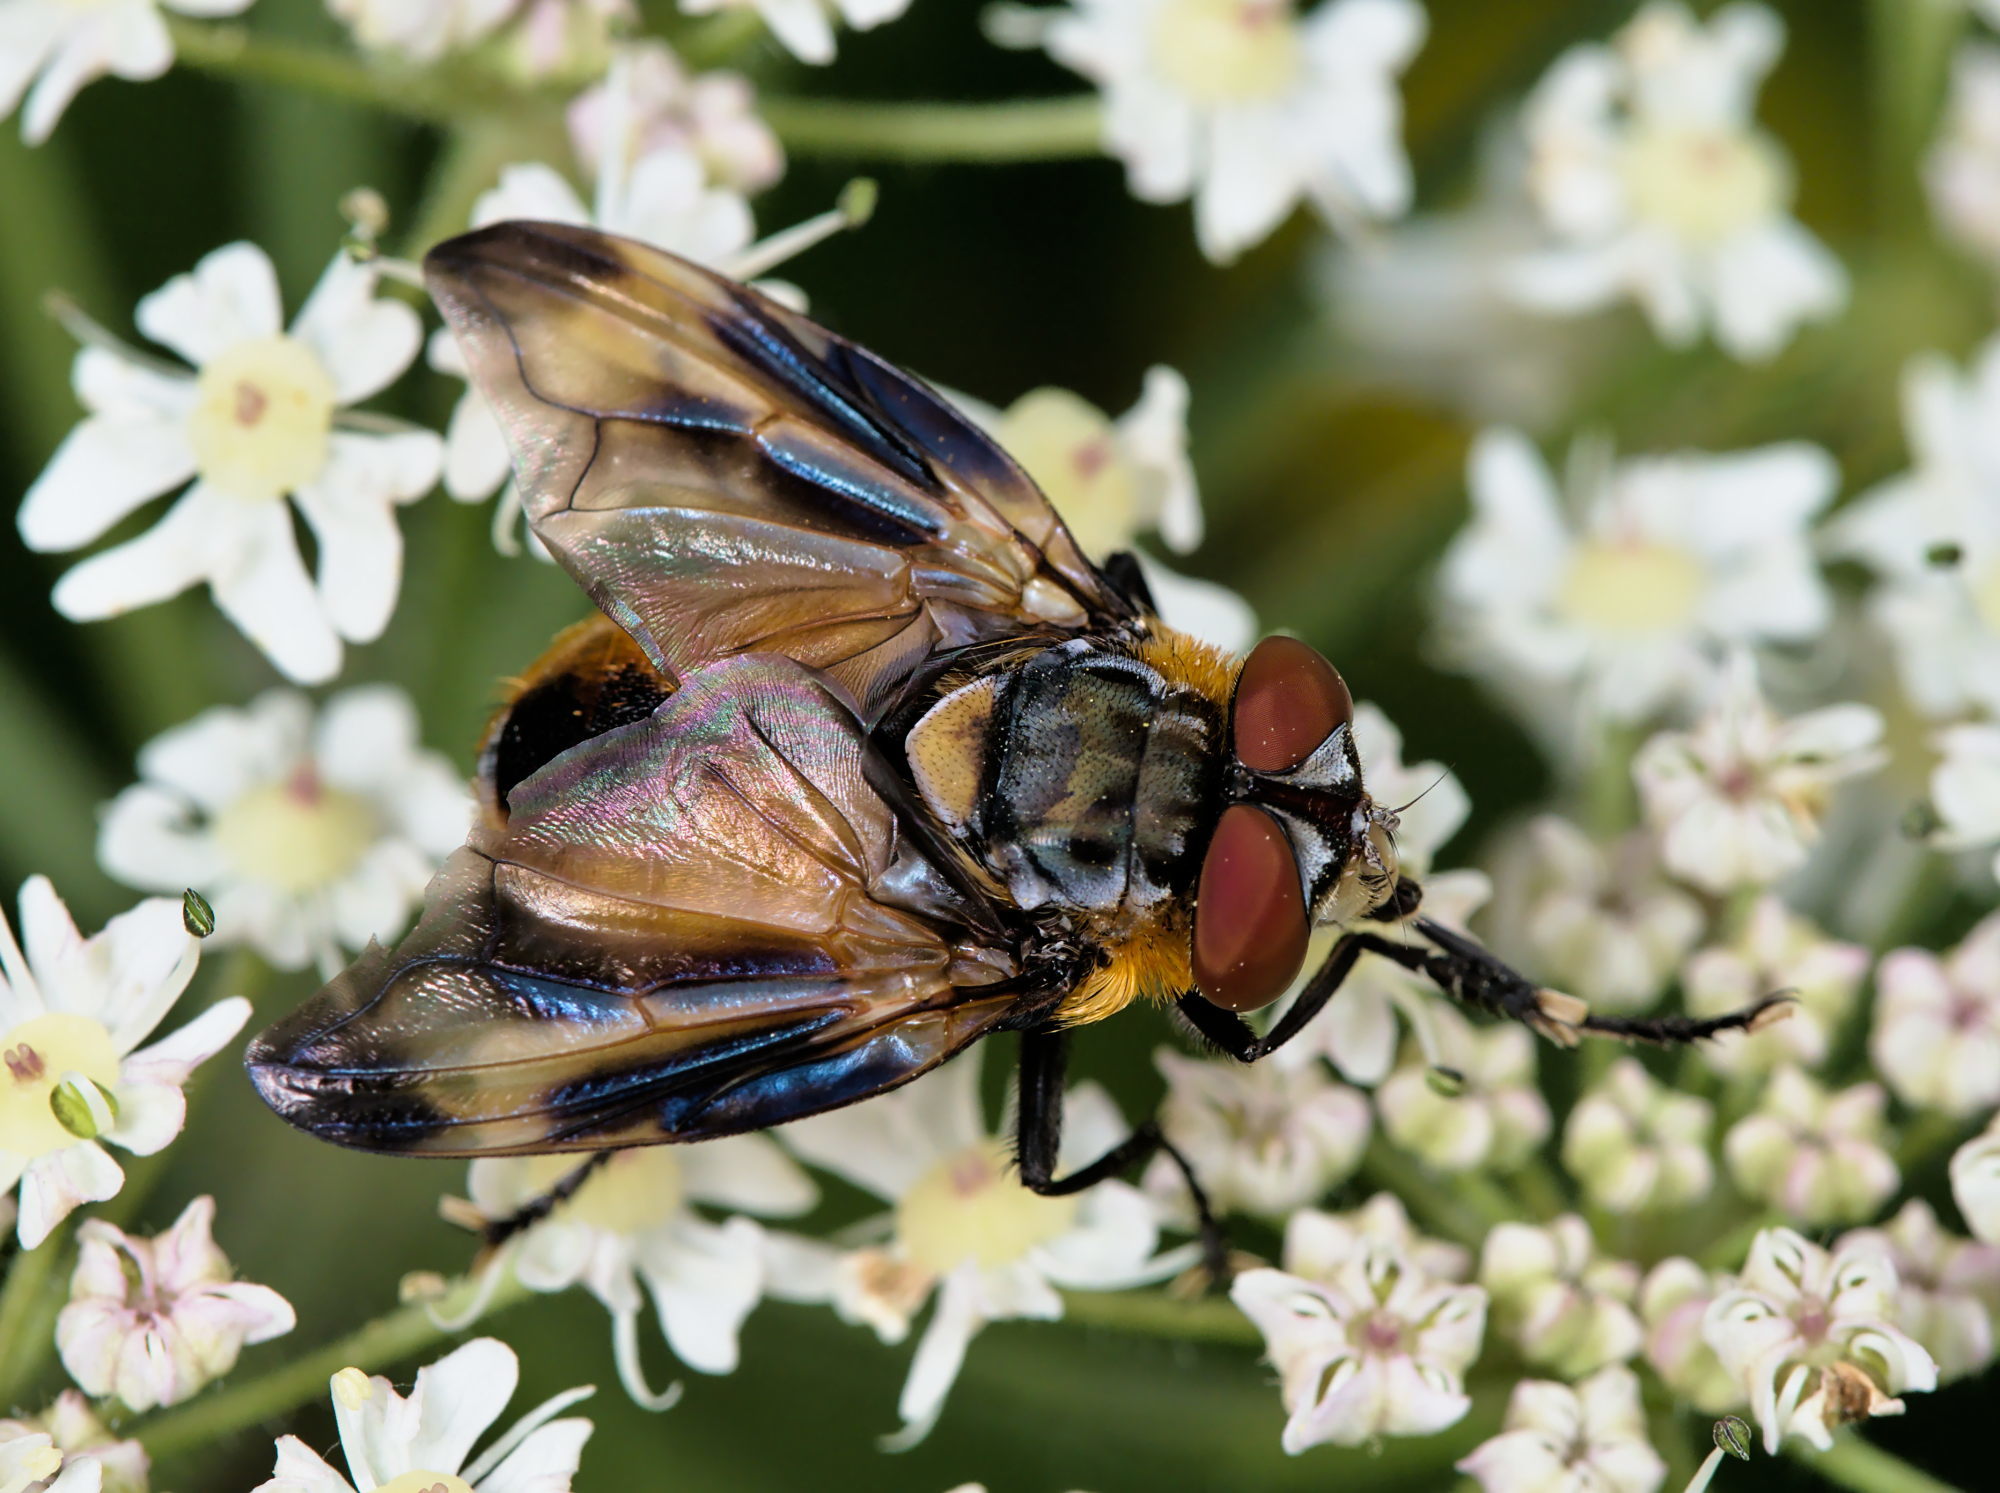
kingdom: Animalia
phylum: Arthropoda
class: Insecta
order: Diptera
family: Tachinidae
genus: Phasia
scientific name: Phasia hemiptera
